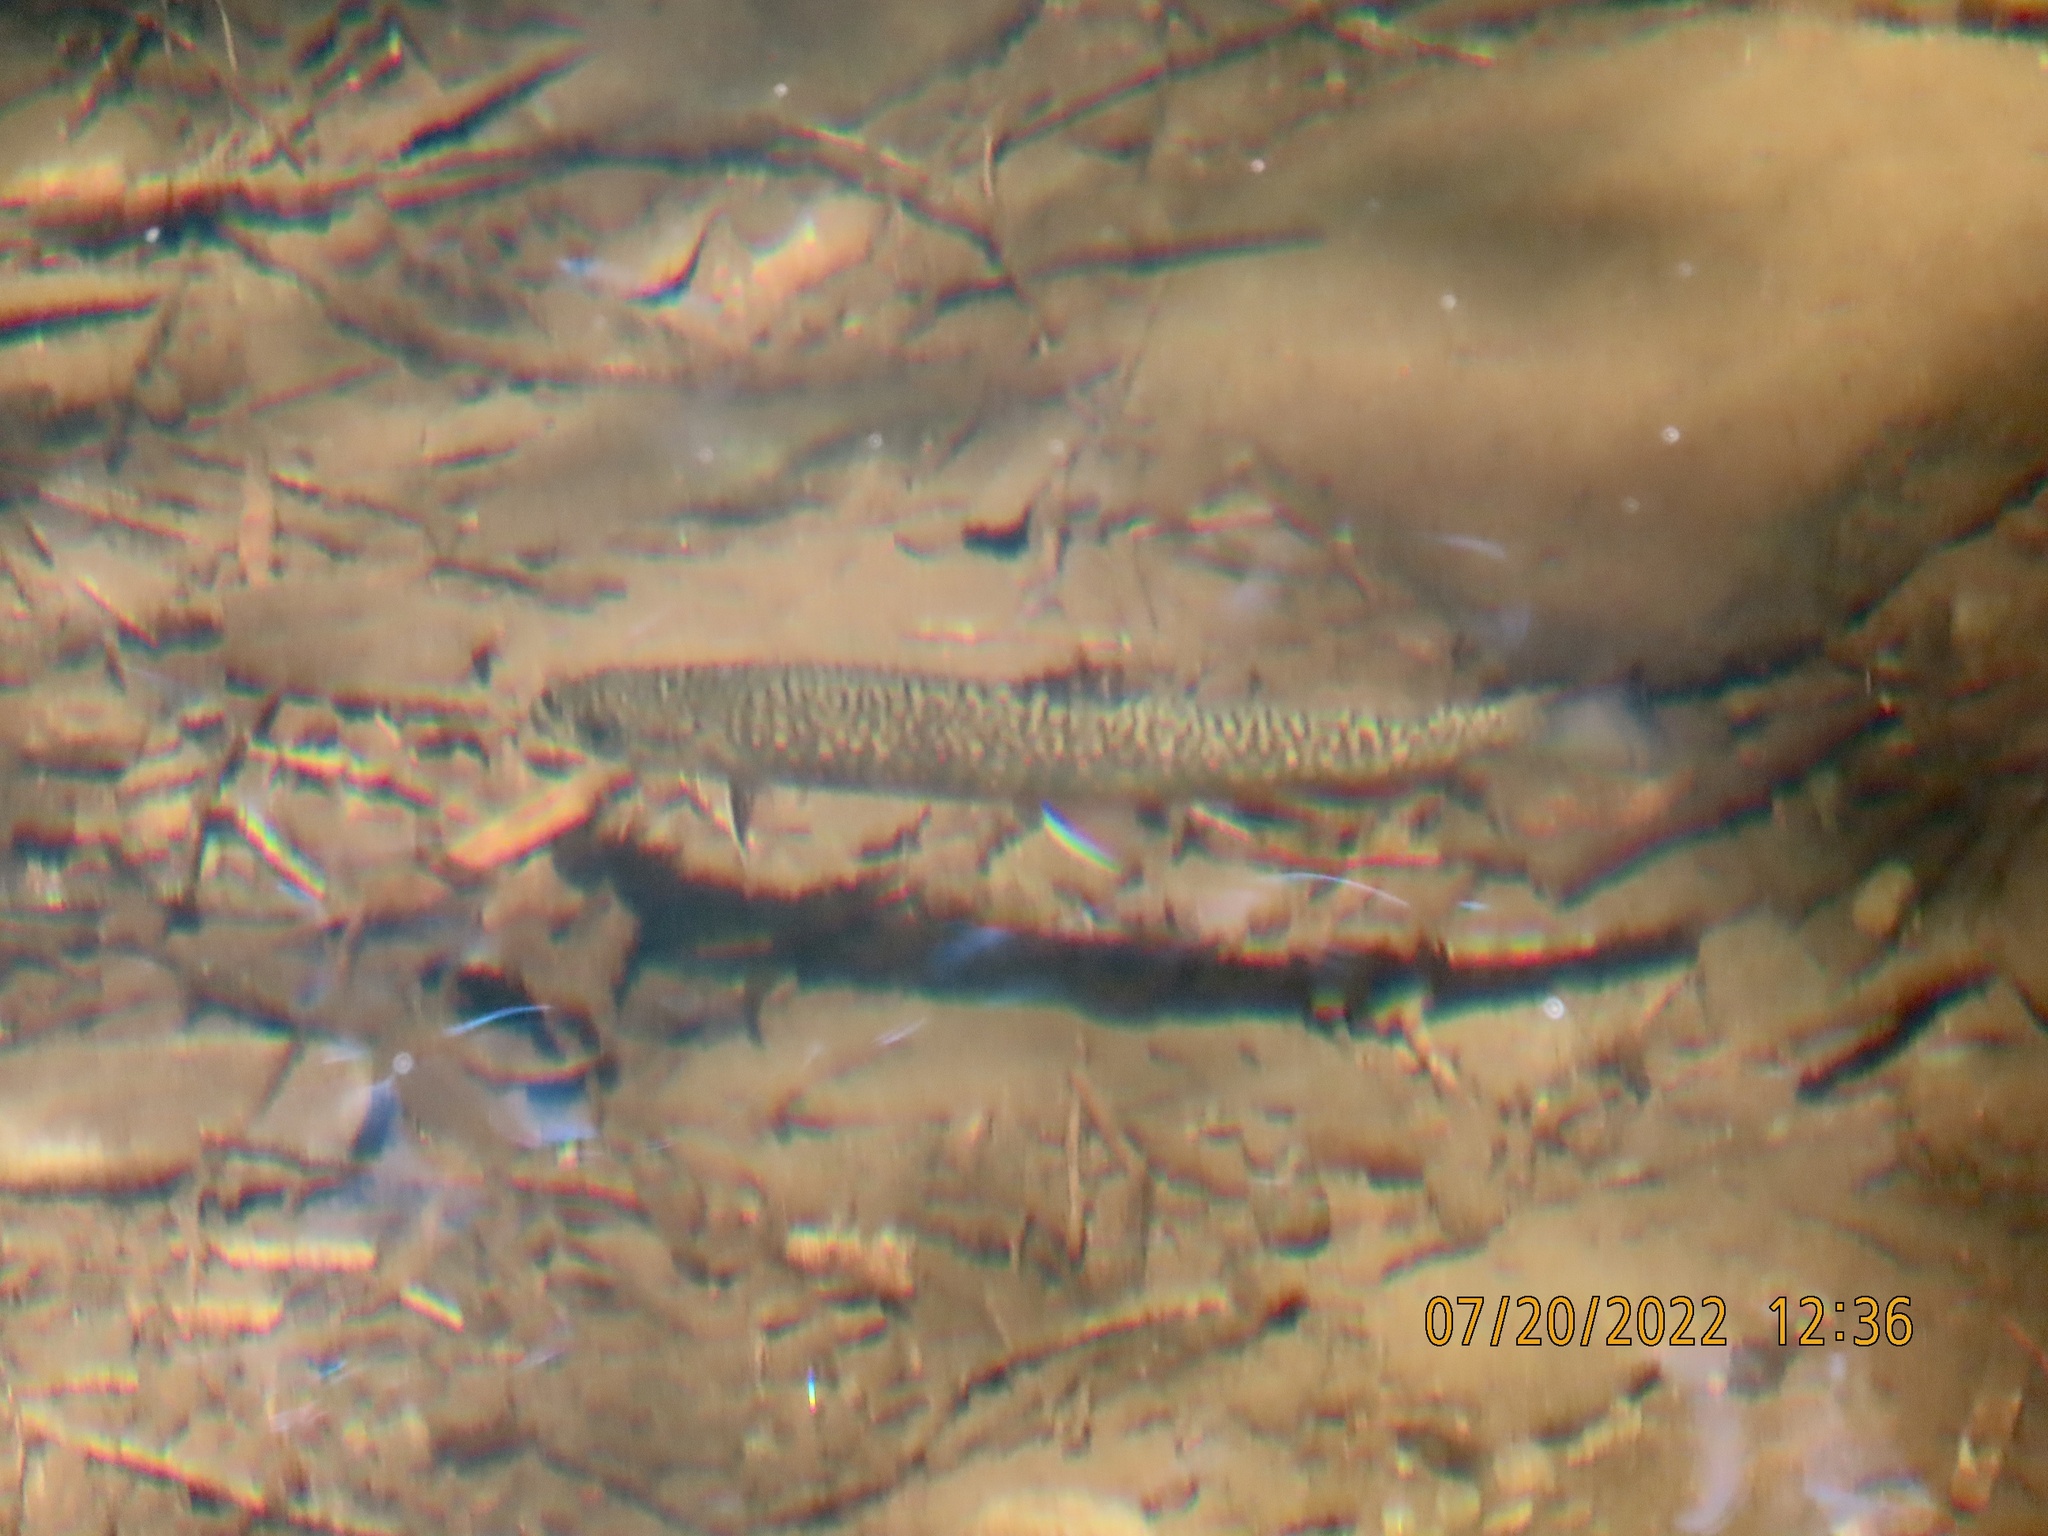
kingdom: Animalia
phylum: Chordata
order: Salmoniformes
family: Salmonidae
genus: Salvelinus
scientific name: Salvelinus fontinalis
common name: Brook trout
